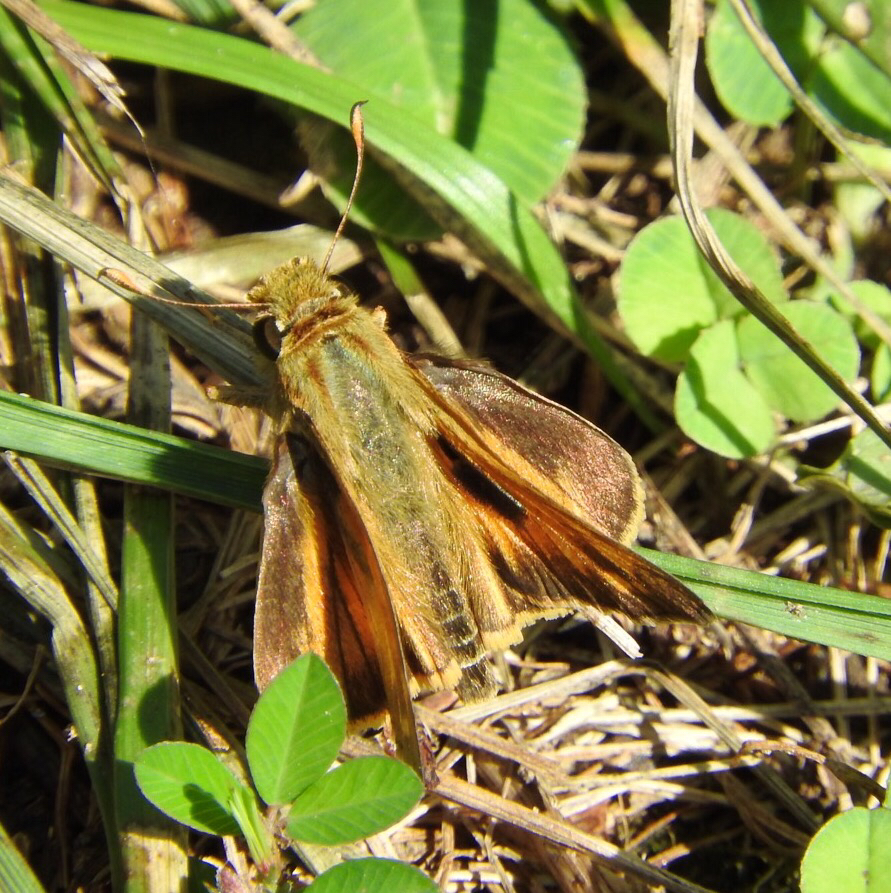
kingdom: Animalia
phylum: Arthropoda
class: Insecta
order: Lepidoptera
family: Hesperiidae
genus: Atalopedes
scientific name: Atalopedes
